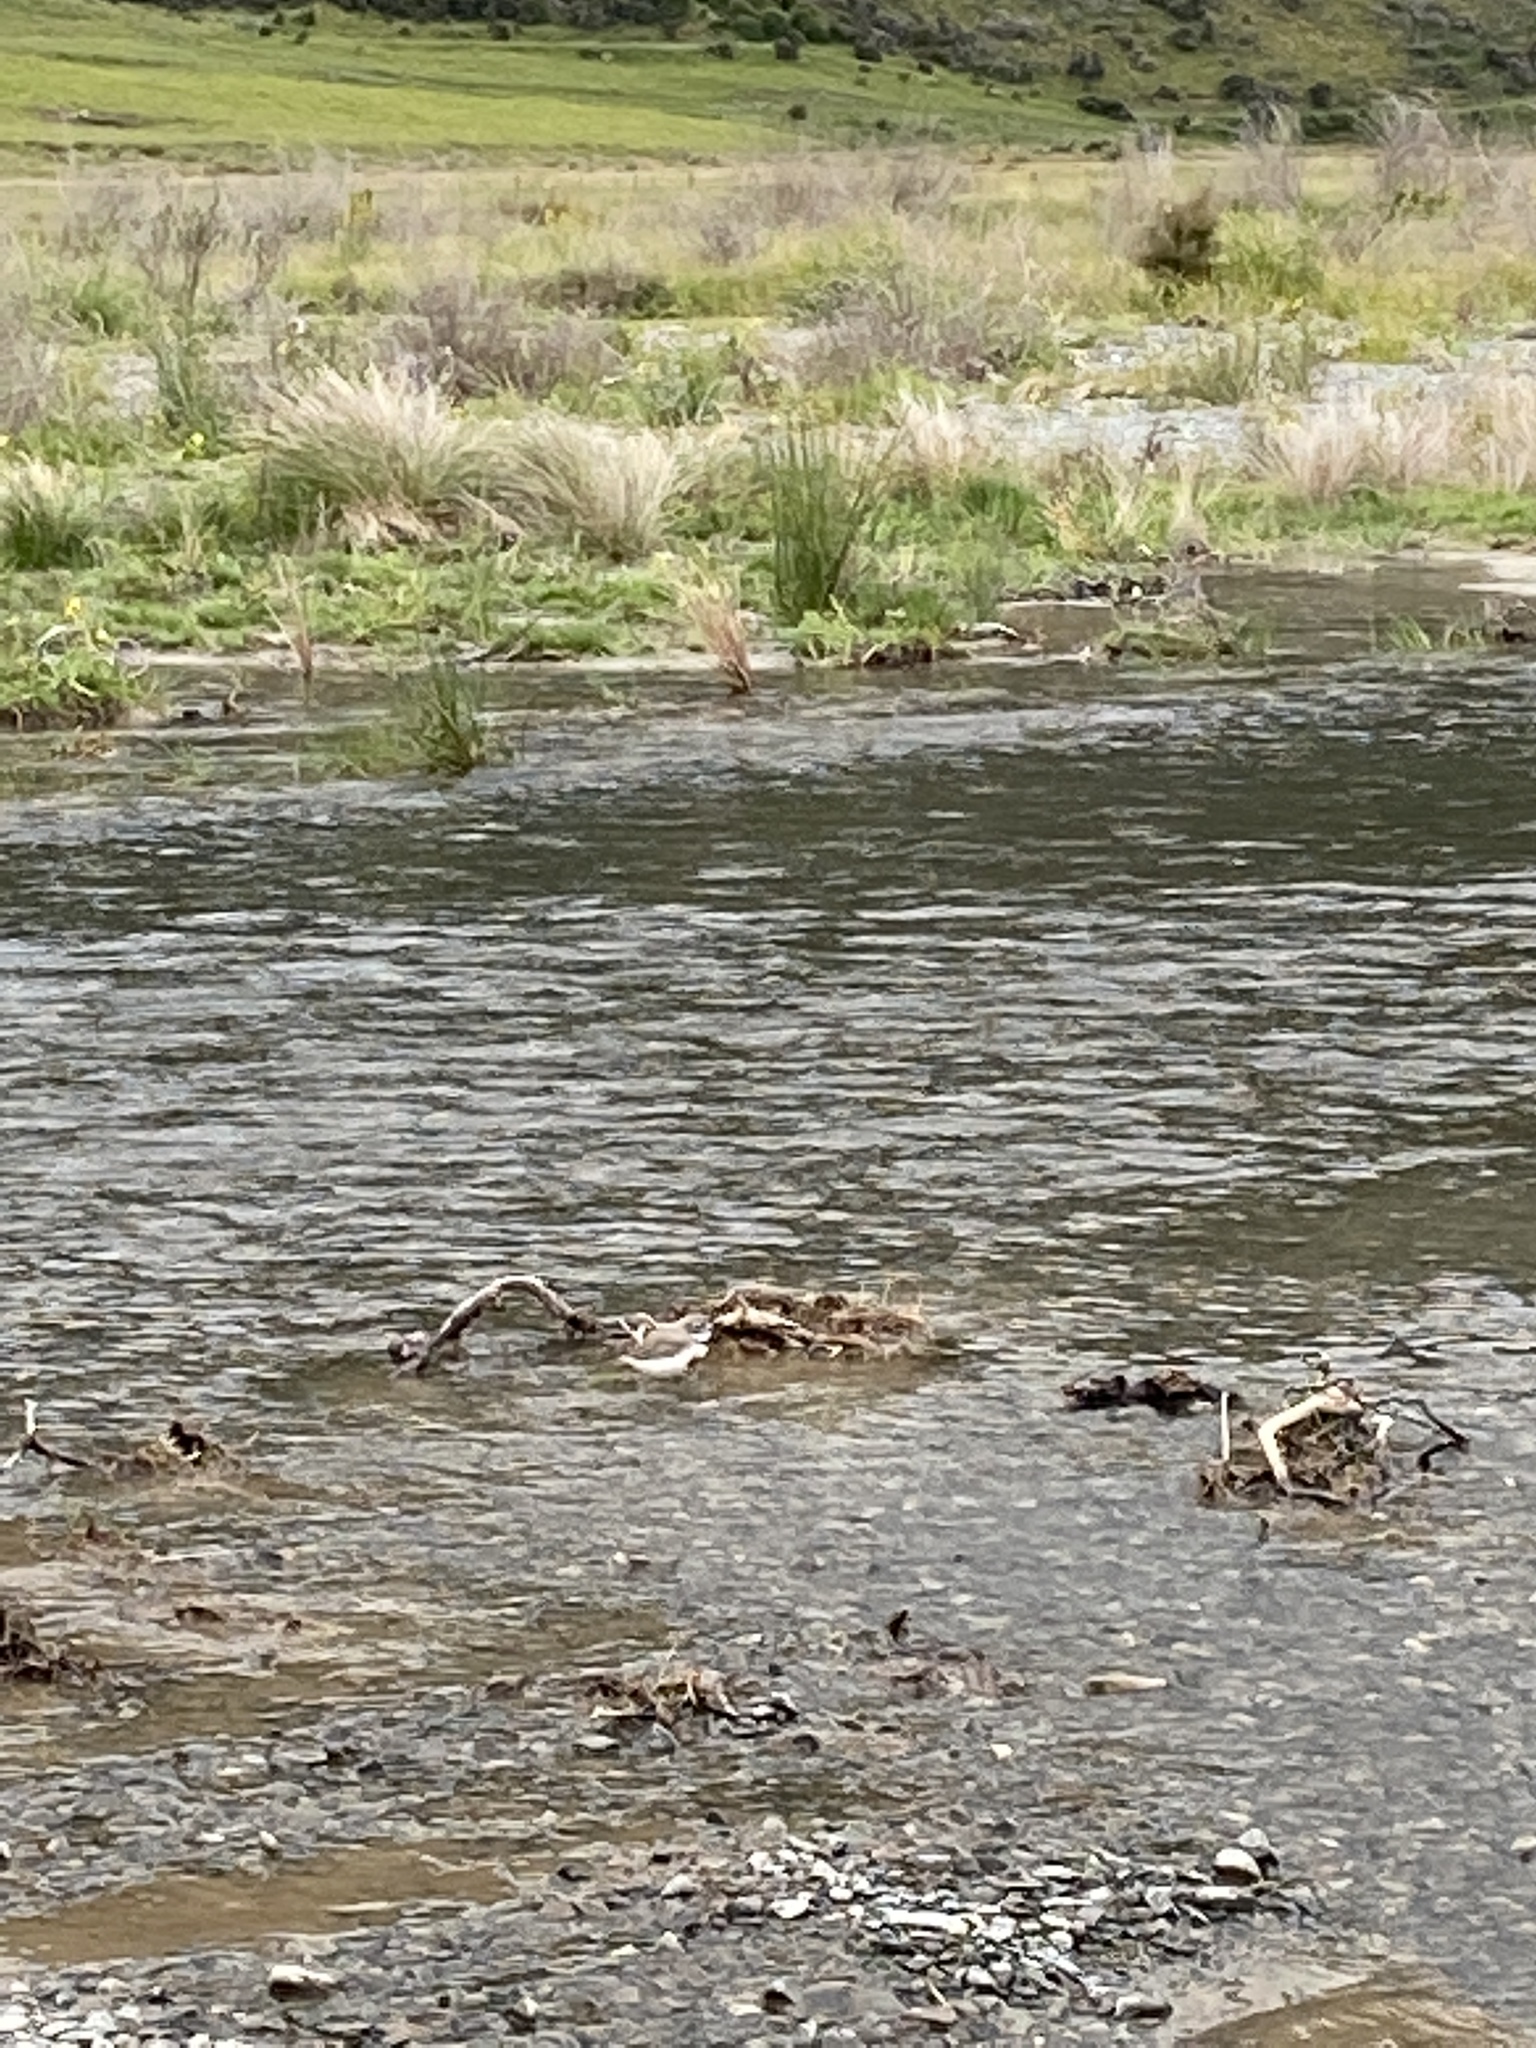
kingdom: Animalia
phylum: Chordata
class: Aves
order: Charadriiformes
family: Charadriidae
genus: Anarhynchus
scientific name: Anarhynchus
